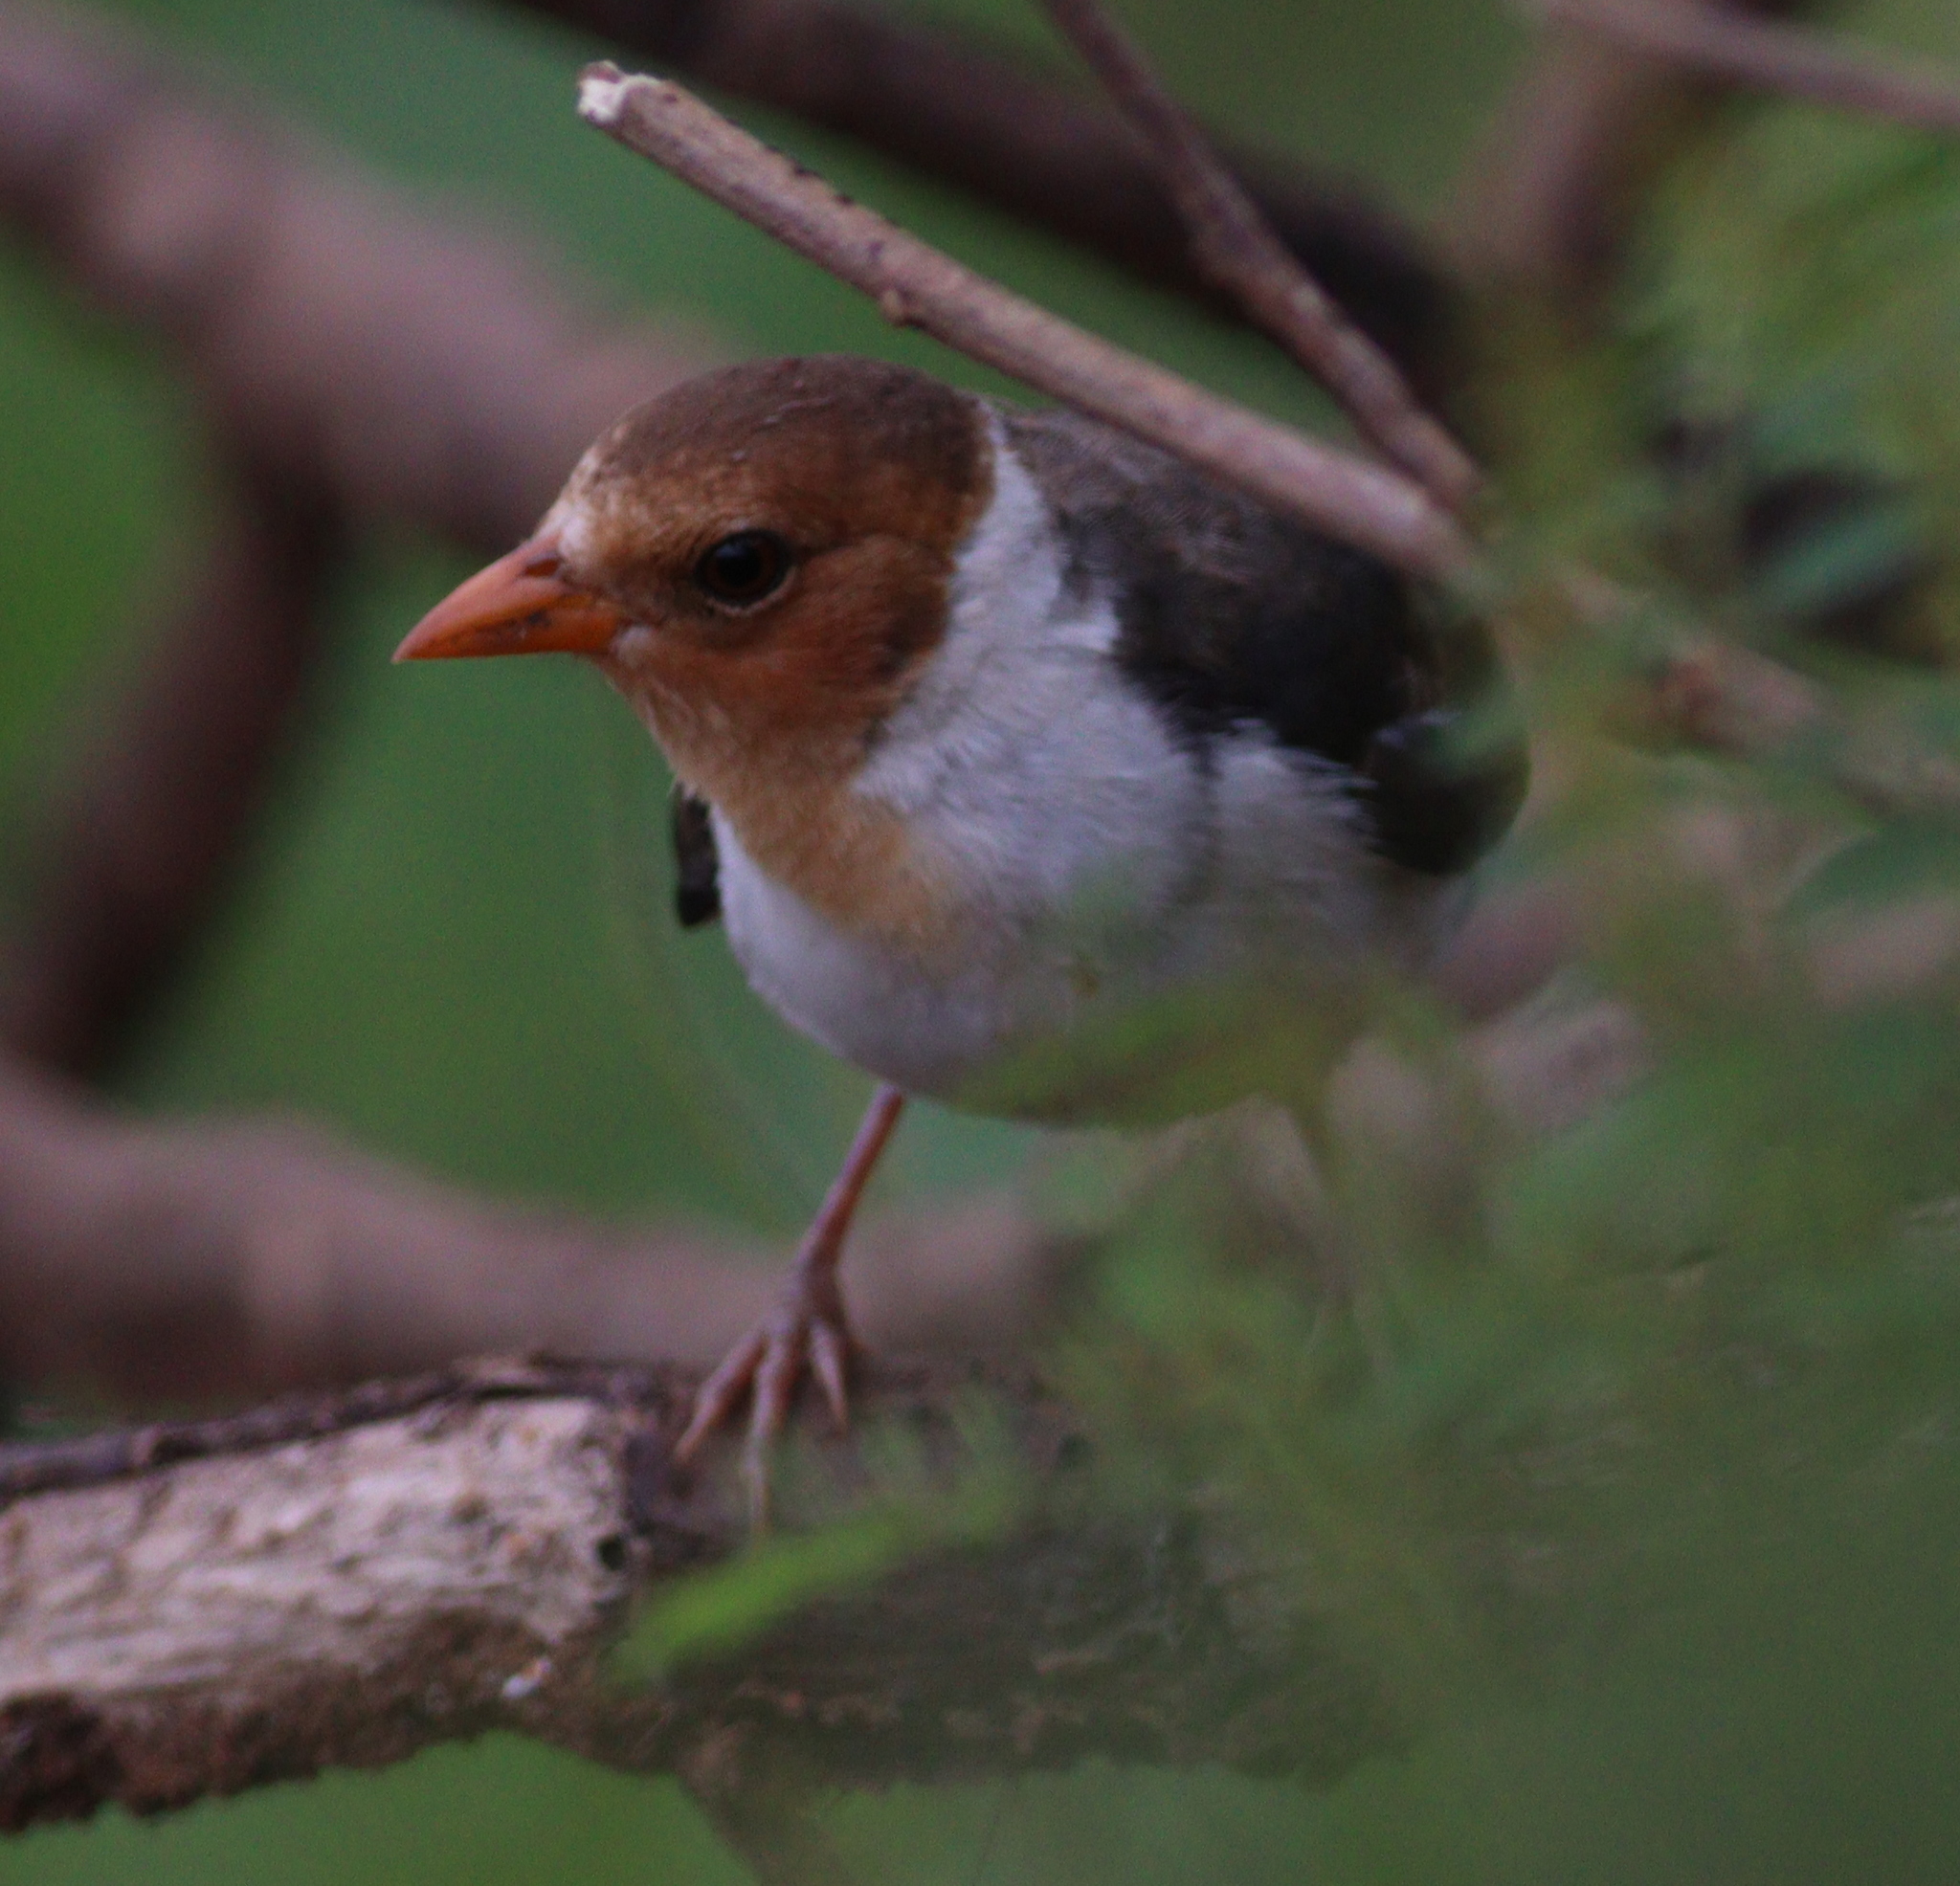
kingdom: Animalia
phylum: Chordata
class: Aves
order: Passeriformes
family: Thraupidae
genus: Paroaria
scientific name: Paroaria capitata
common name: Yellow-billed cardinal
